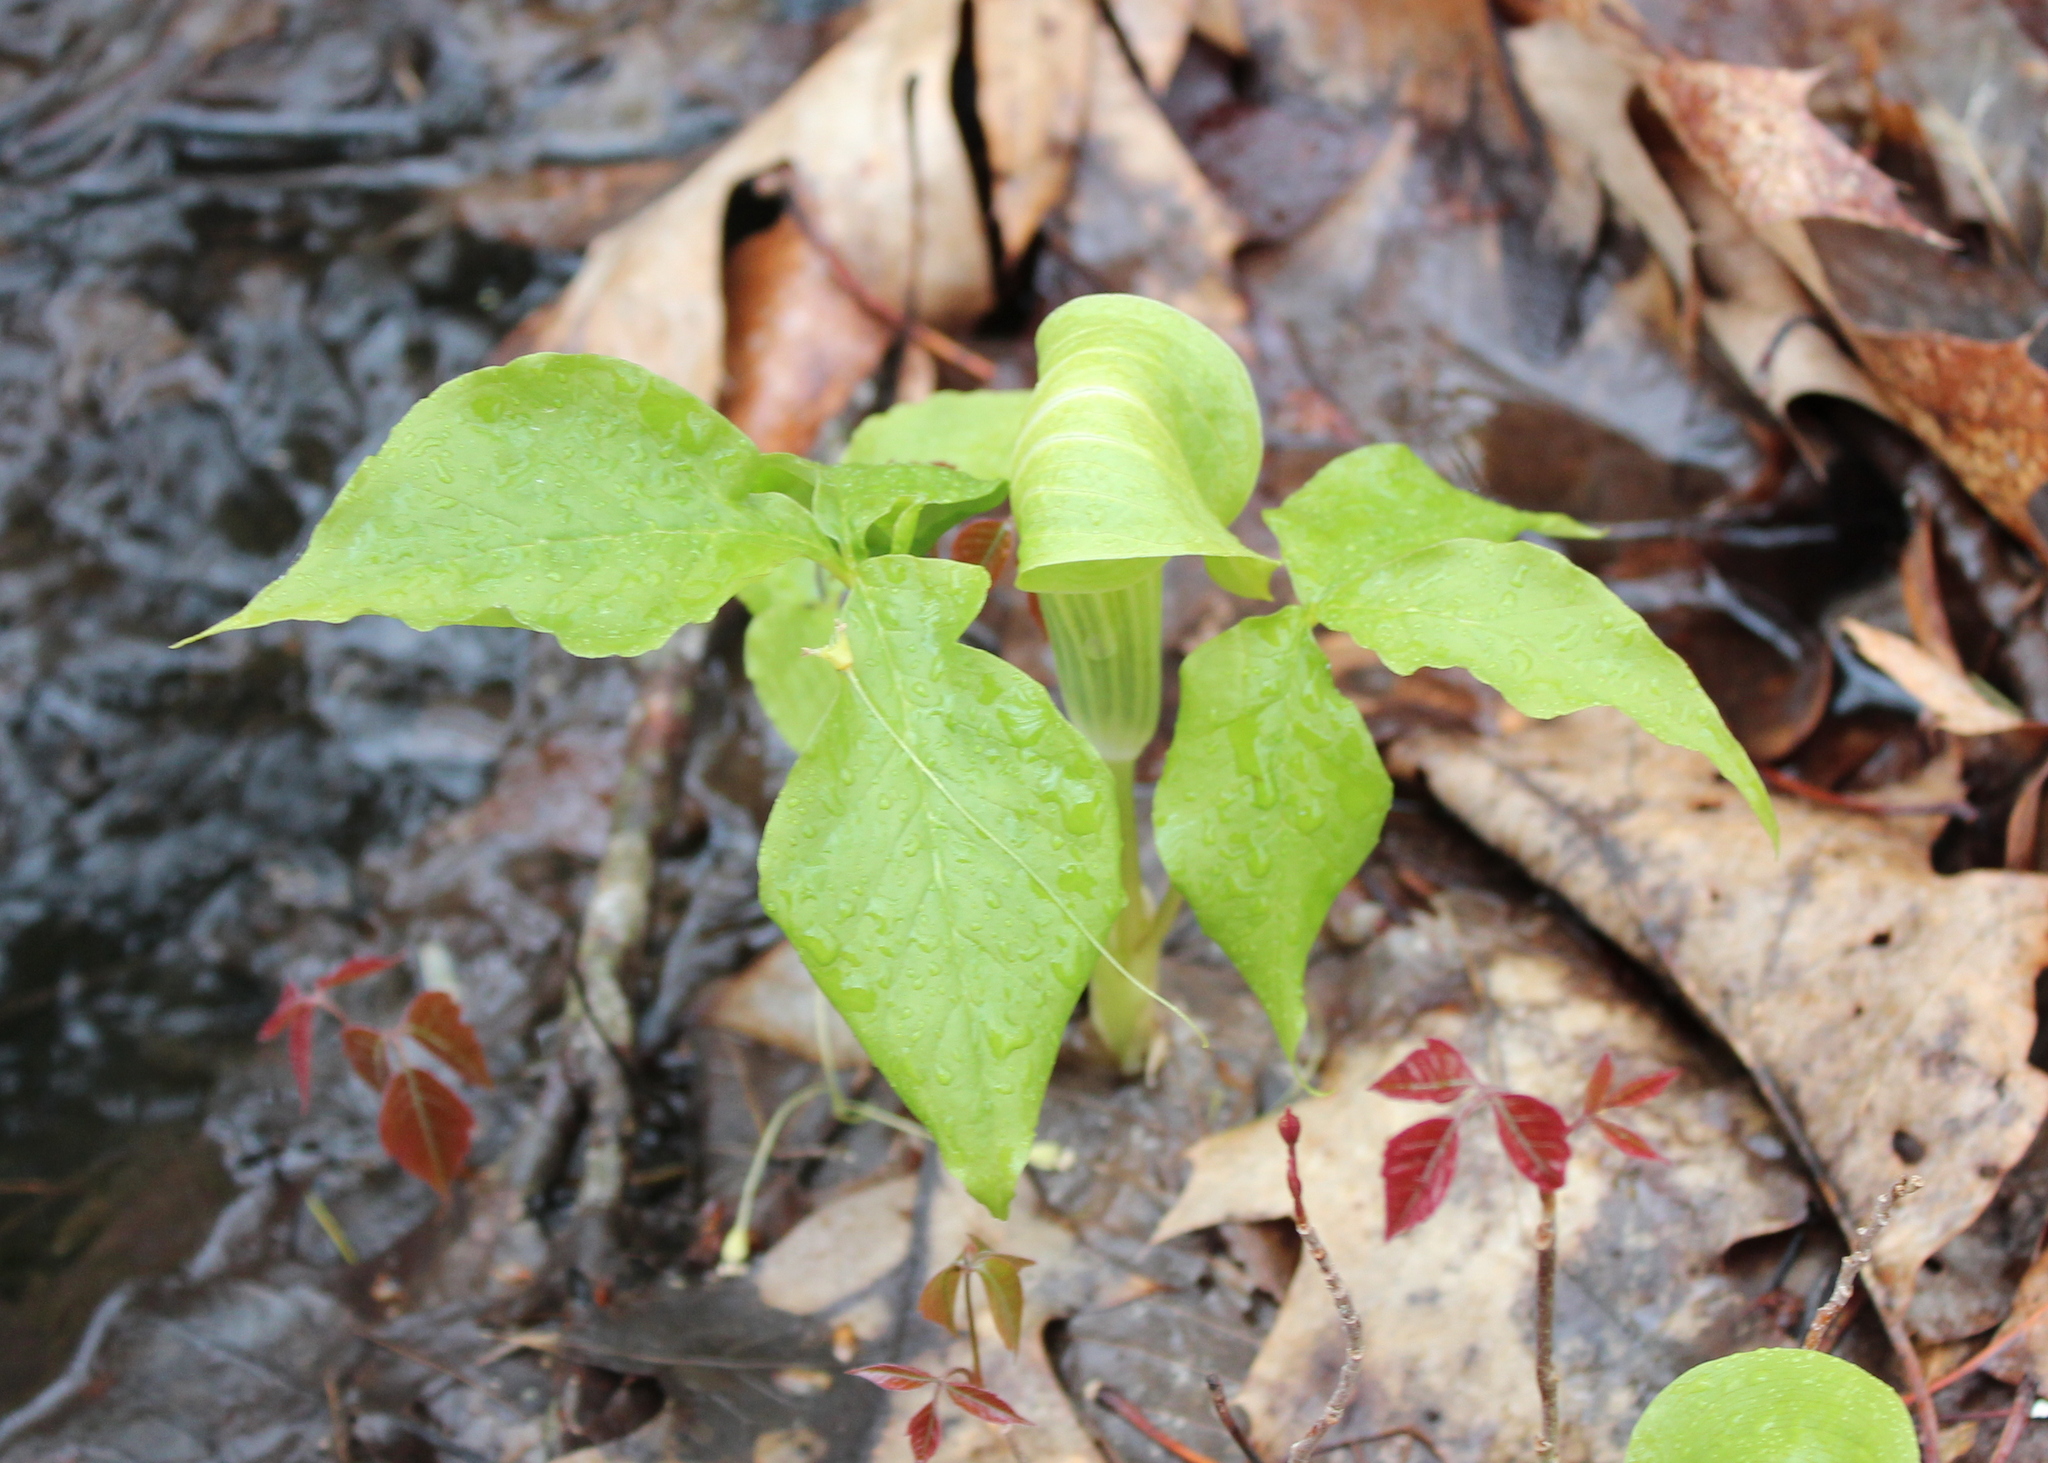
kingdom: Plantae
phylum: Tracheophyta
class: Liliopsida
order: Alismatales
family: Araceae
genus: Arisaema
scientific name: Arisaema triphyllum
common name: Jack-in-the-pulpit
